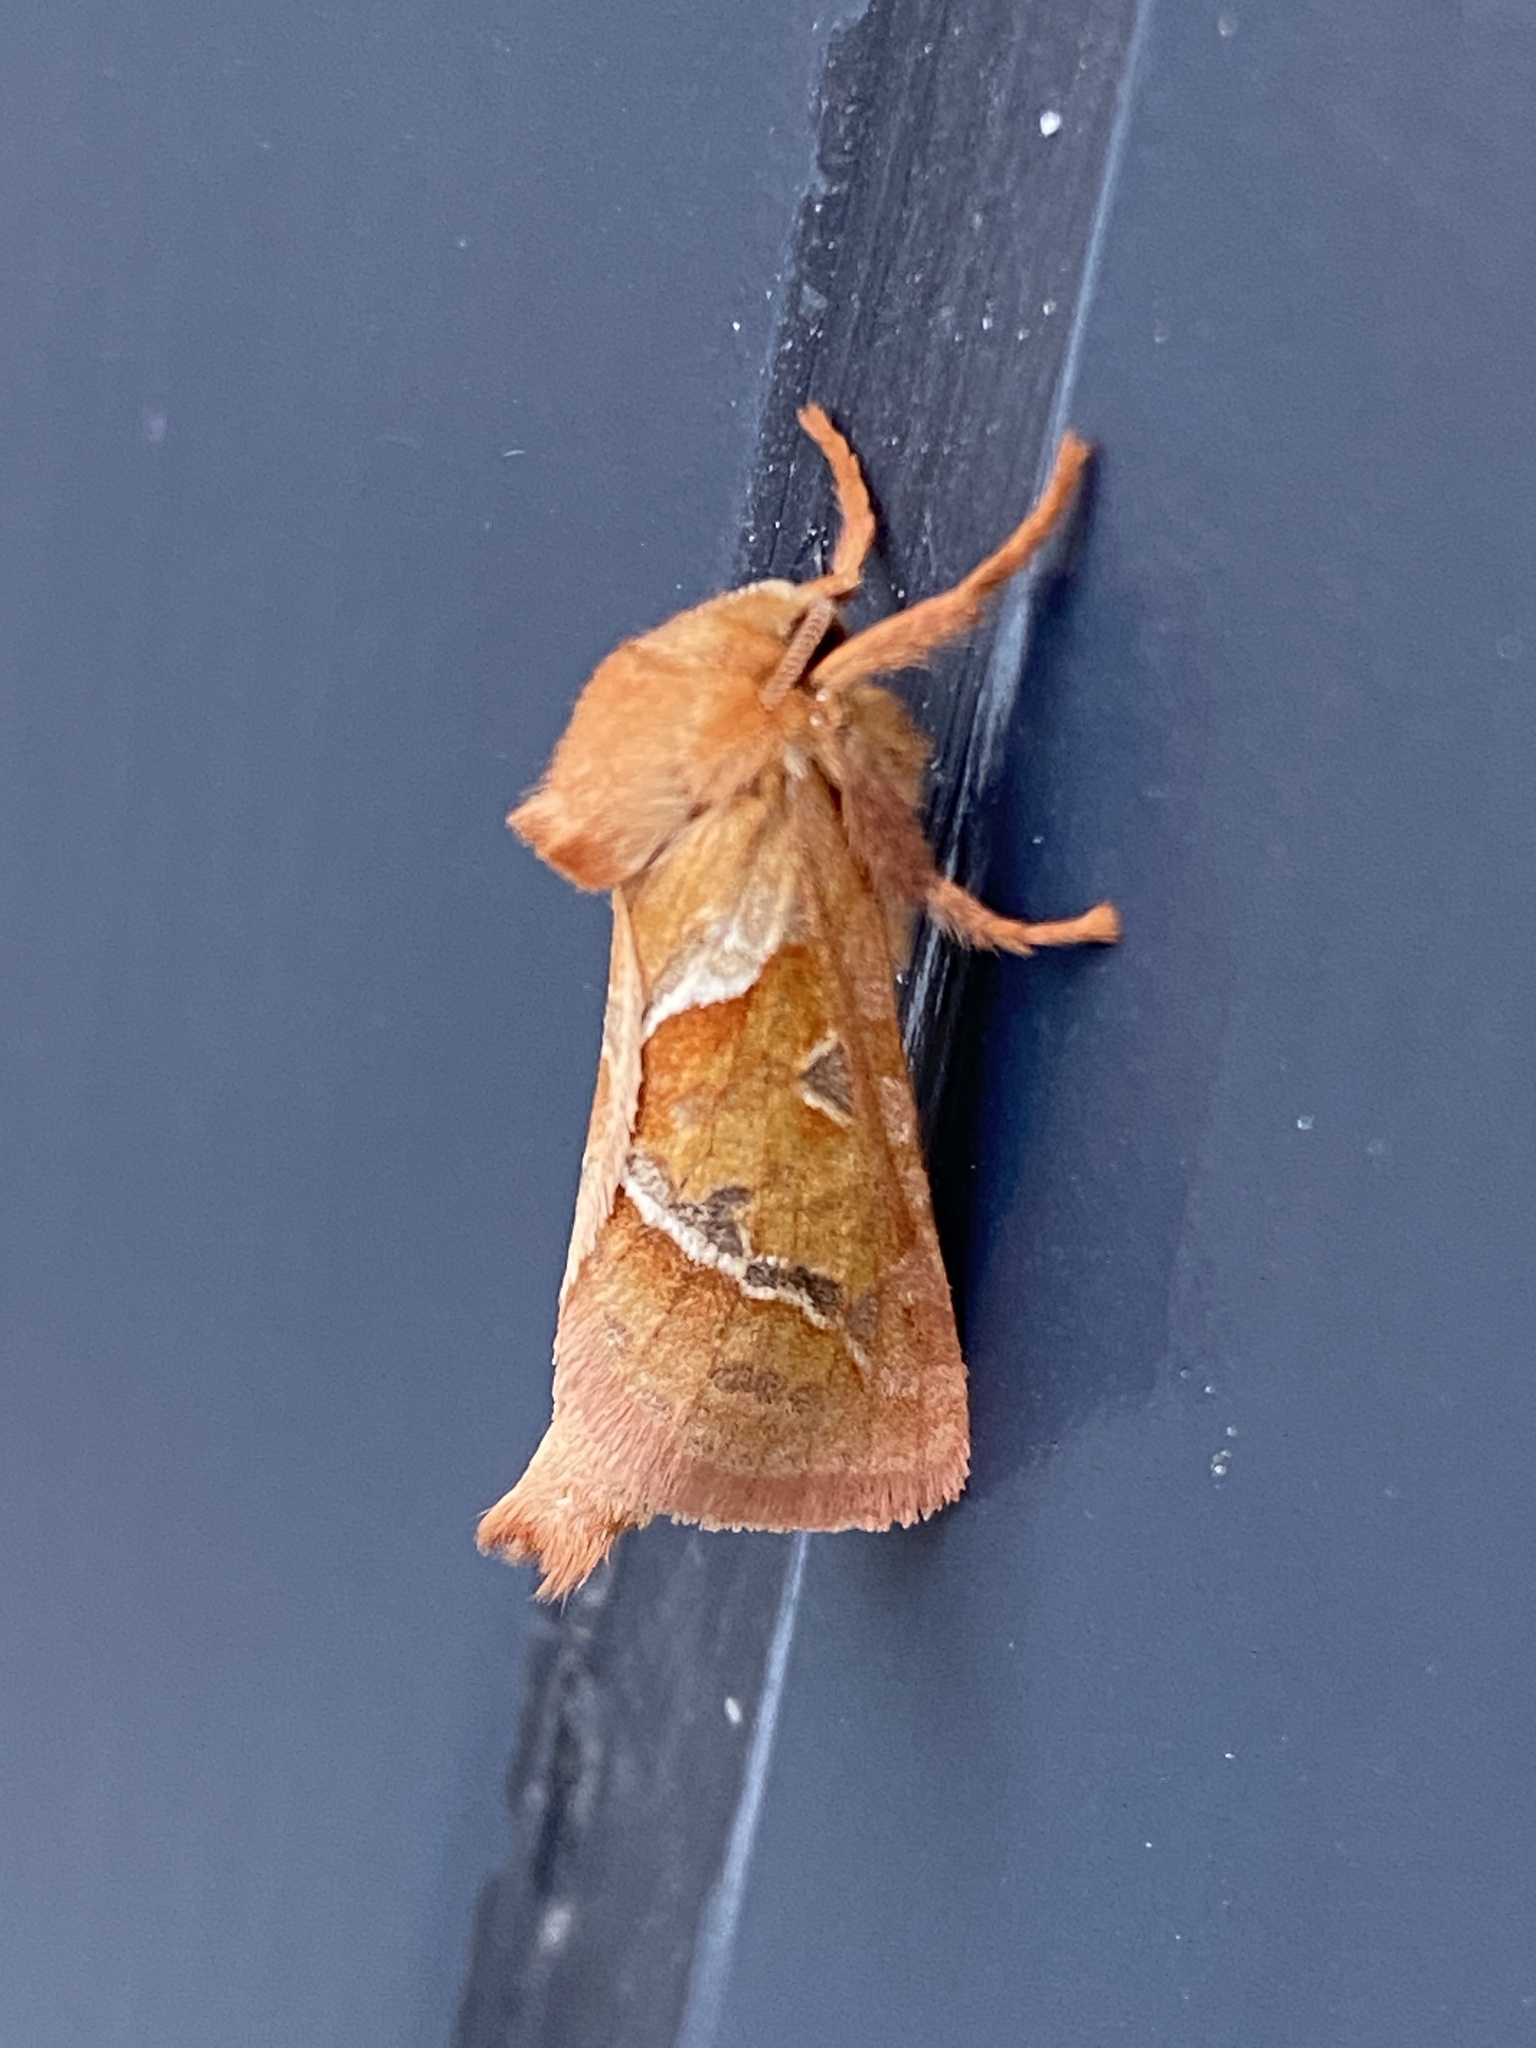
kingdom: Animalia
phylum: Arthropoda
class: Insecta
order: Lepidoptera
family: Hepialidae
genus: Triodia
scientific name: Triodia sylvina
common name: Orange swift
